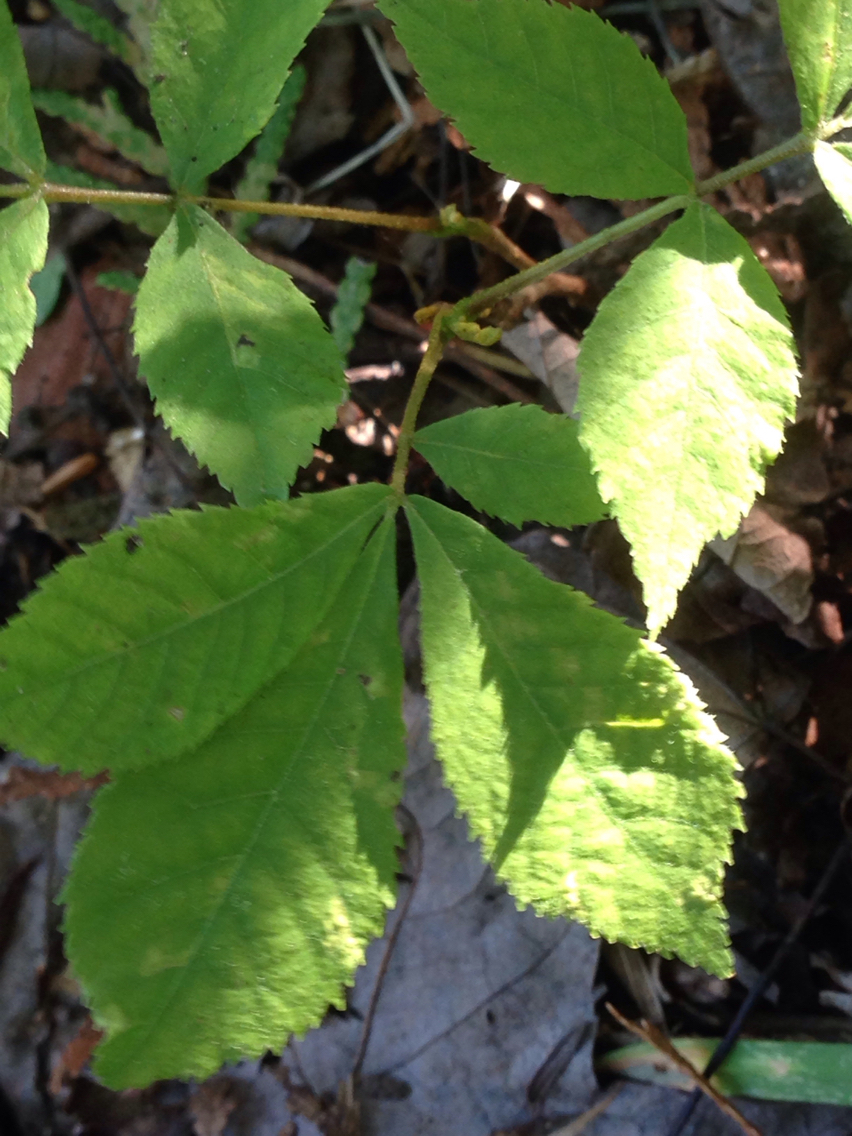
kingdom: Plantae
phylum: Tracheophyta
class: Magnoliopsida
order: Fagales
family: Juglandaceae
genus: Carya
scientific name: Carya cordiformis
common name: Bitternut hickory
